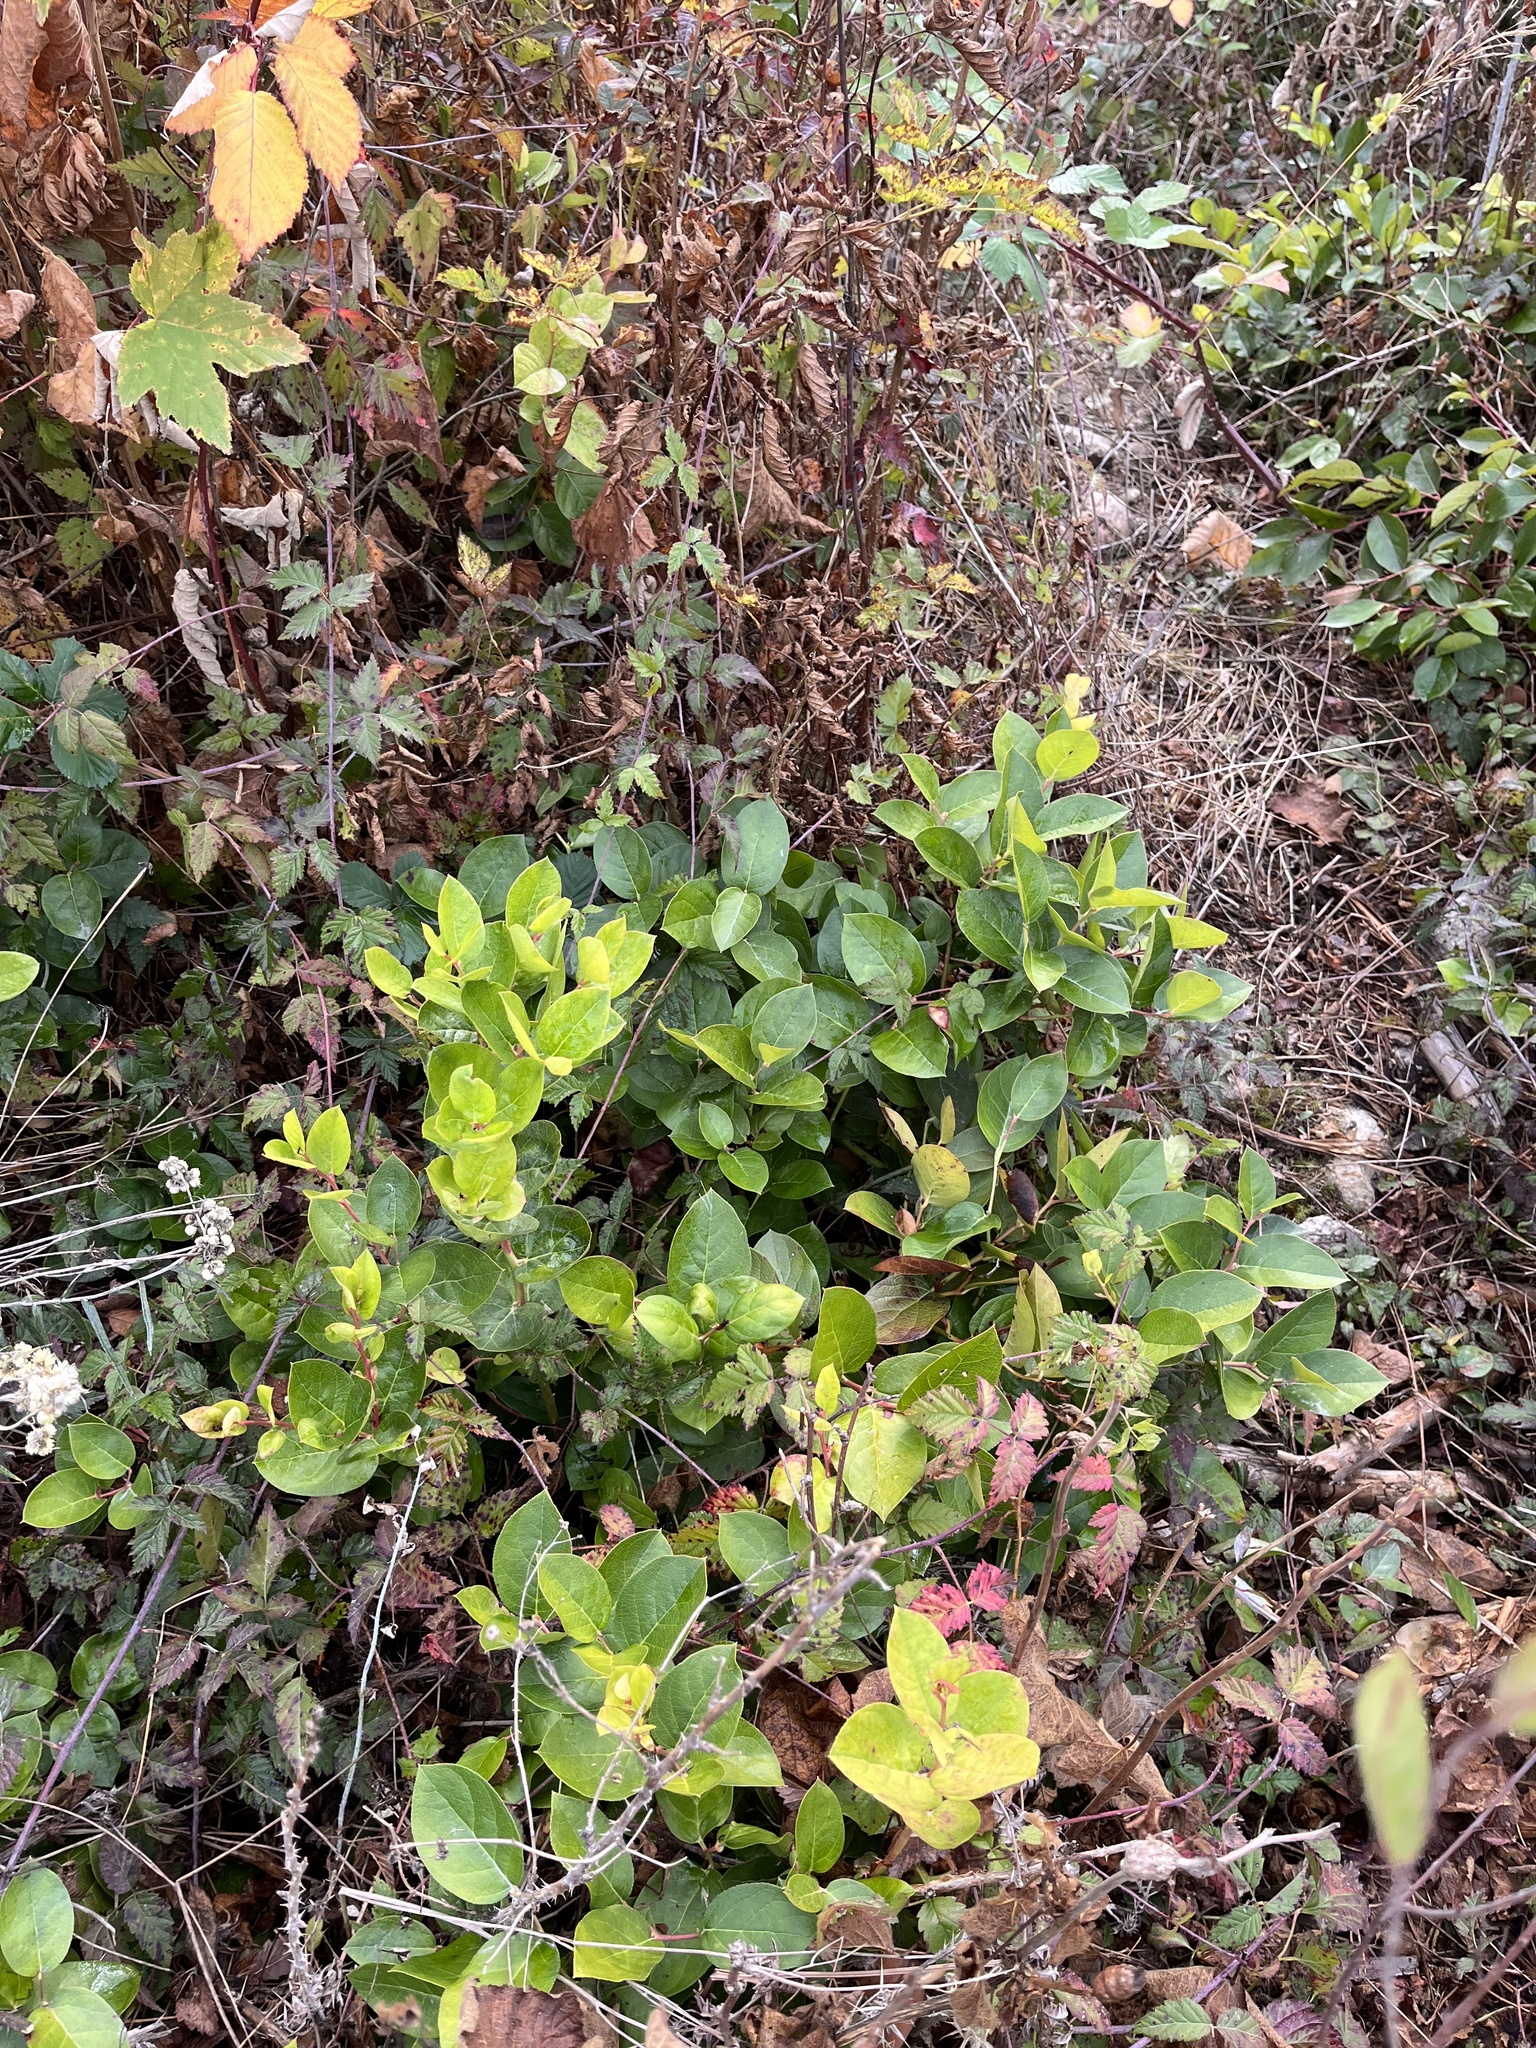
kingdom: Plantae
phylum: Tracheophyta
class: Magnoliopsida
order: Ericales
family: Ericaceae
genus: Gaultheria
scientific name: Gaultheria shallon
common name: Shallon
